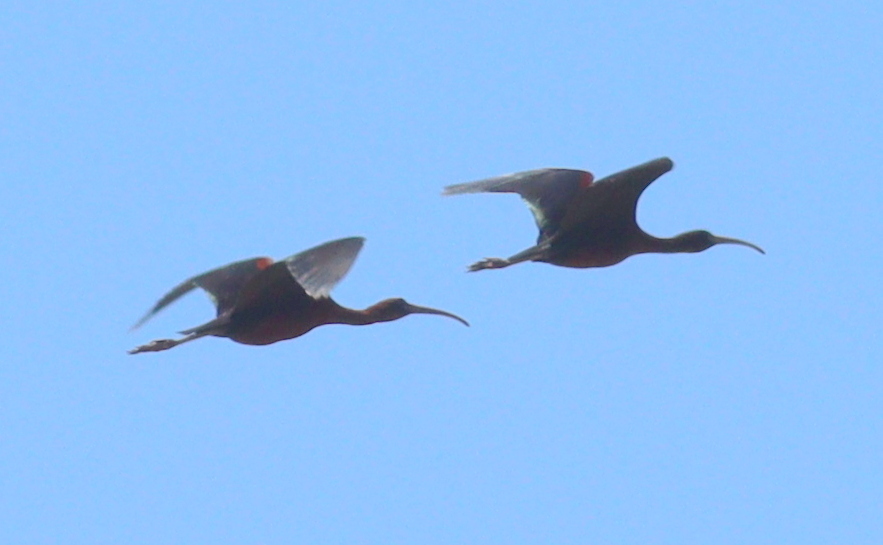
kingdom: Animalia
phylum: Chordata
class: Aves
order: Pelecaniformes
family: Threskiornithidae
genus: Plegadis
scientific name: Plegadis falcinellus
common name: Glossy ibis
